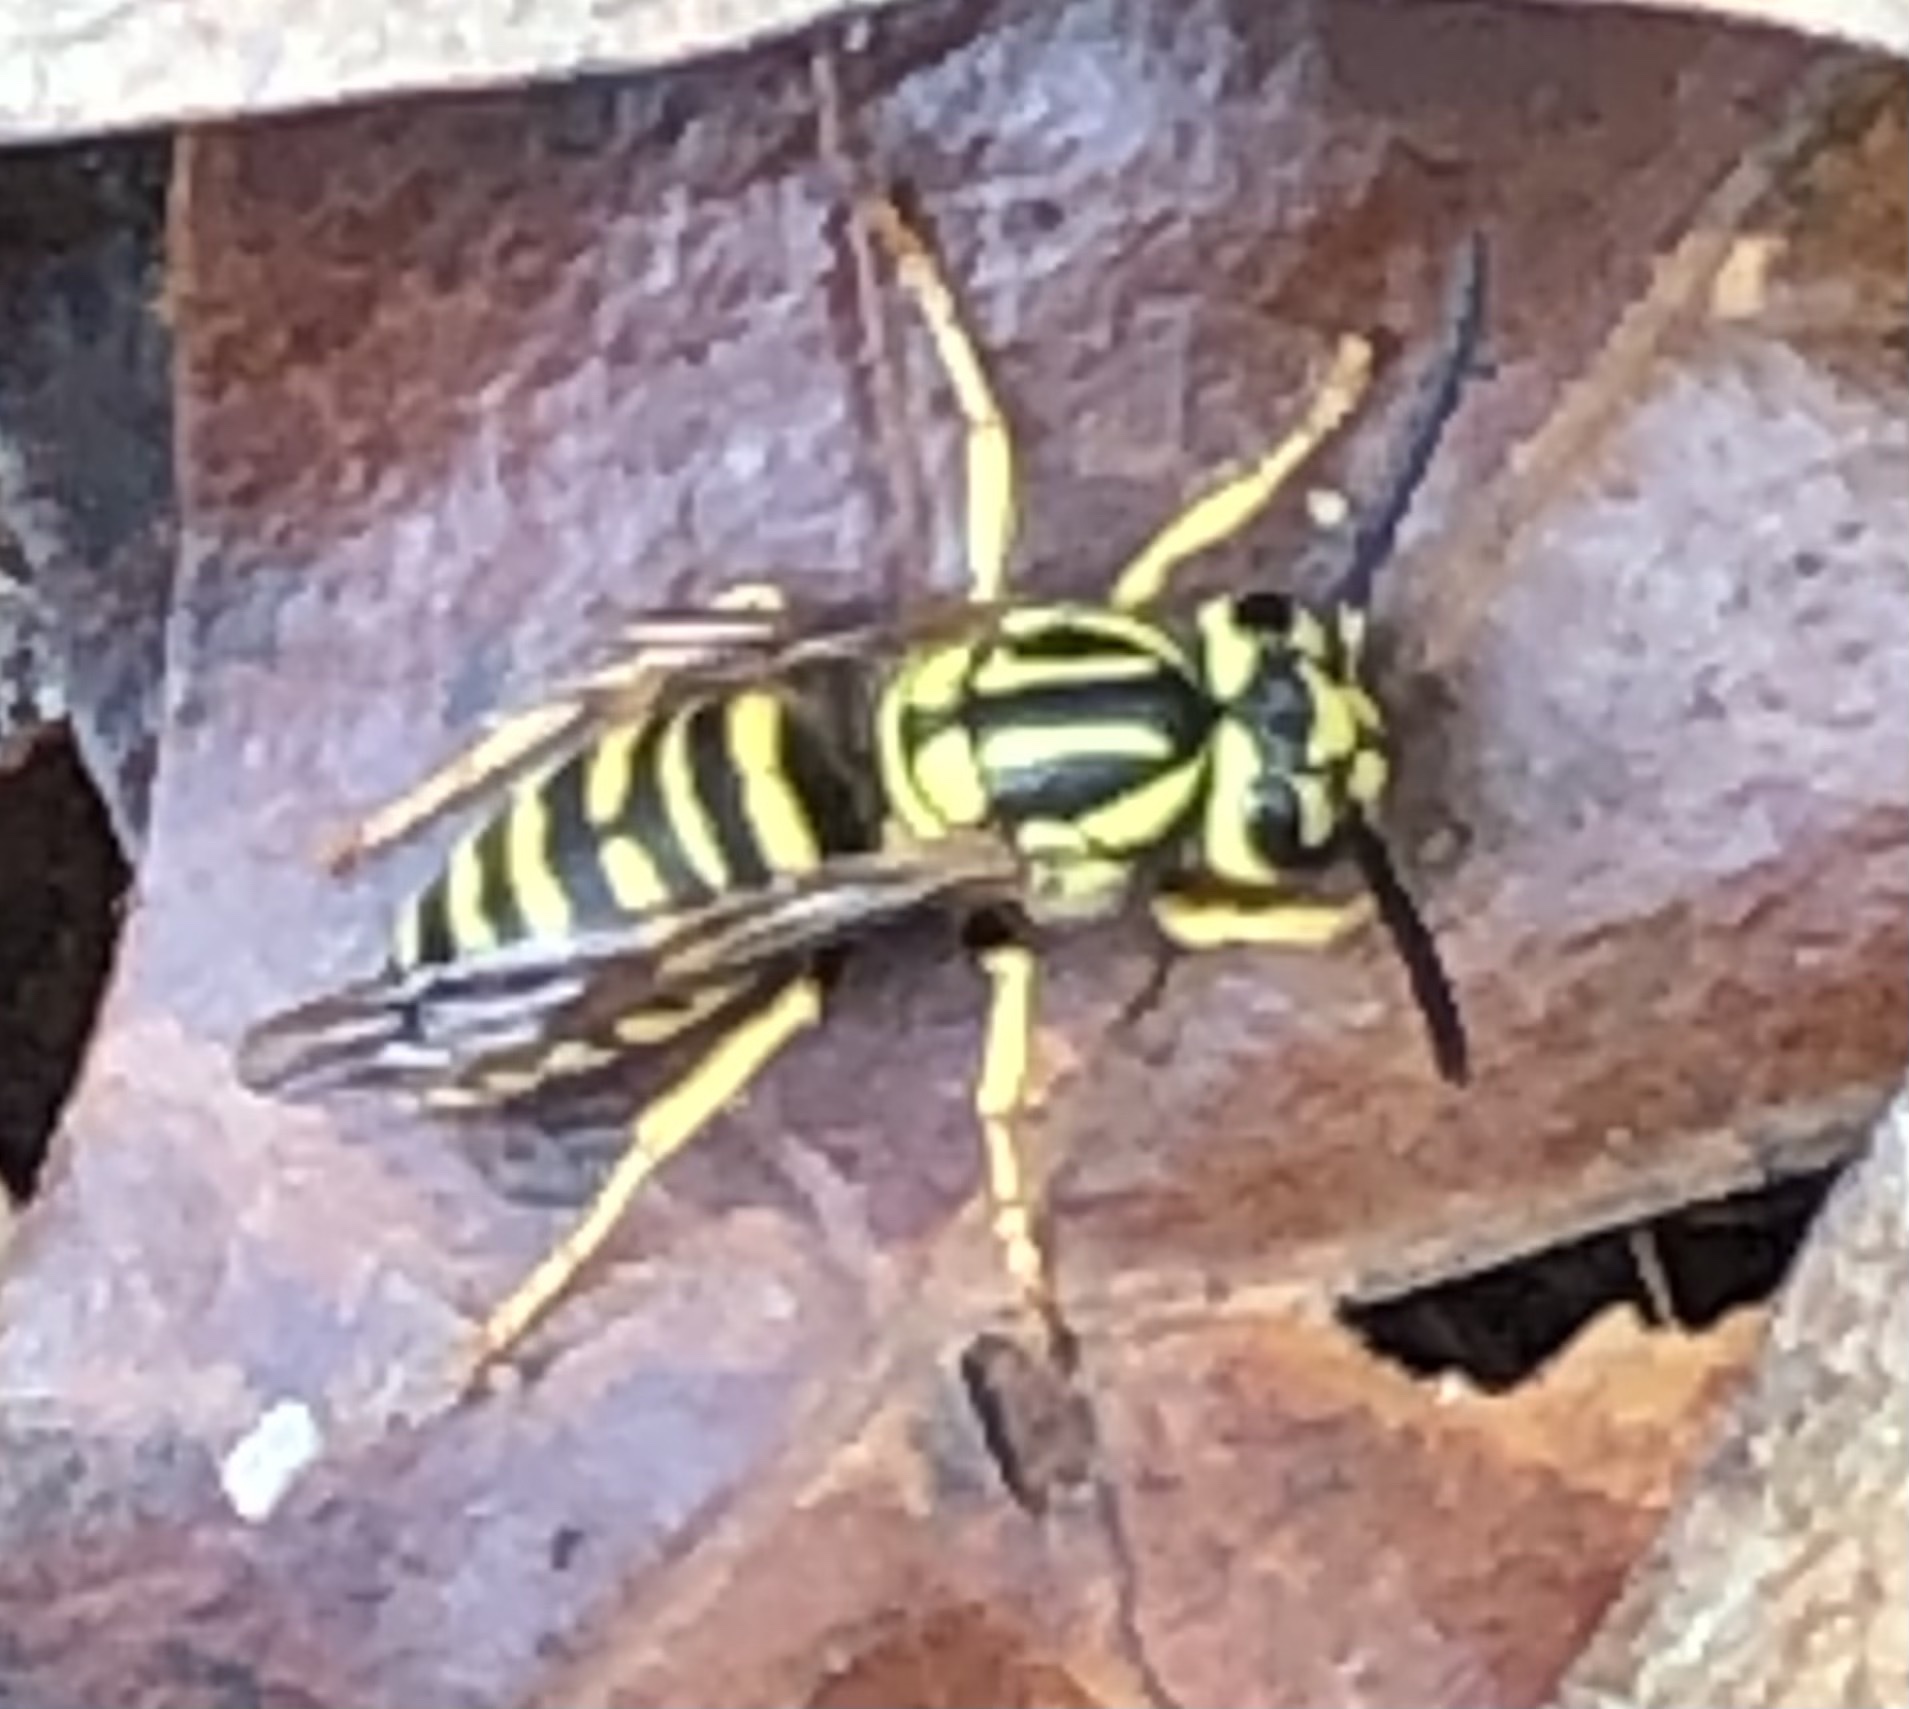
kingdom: Animalia
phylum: Arthropoda
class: Insecta
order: Hymenoptera
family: Vespidae
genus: Vespula
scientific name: Vespula squamosa
